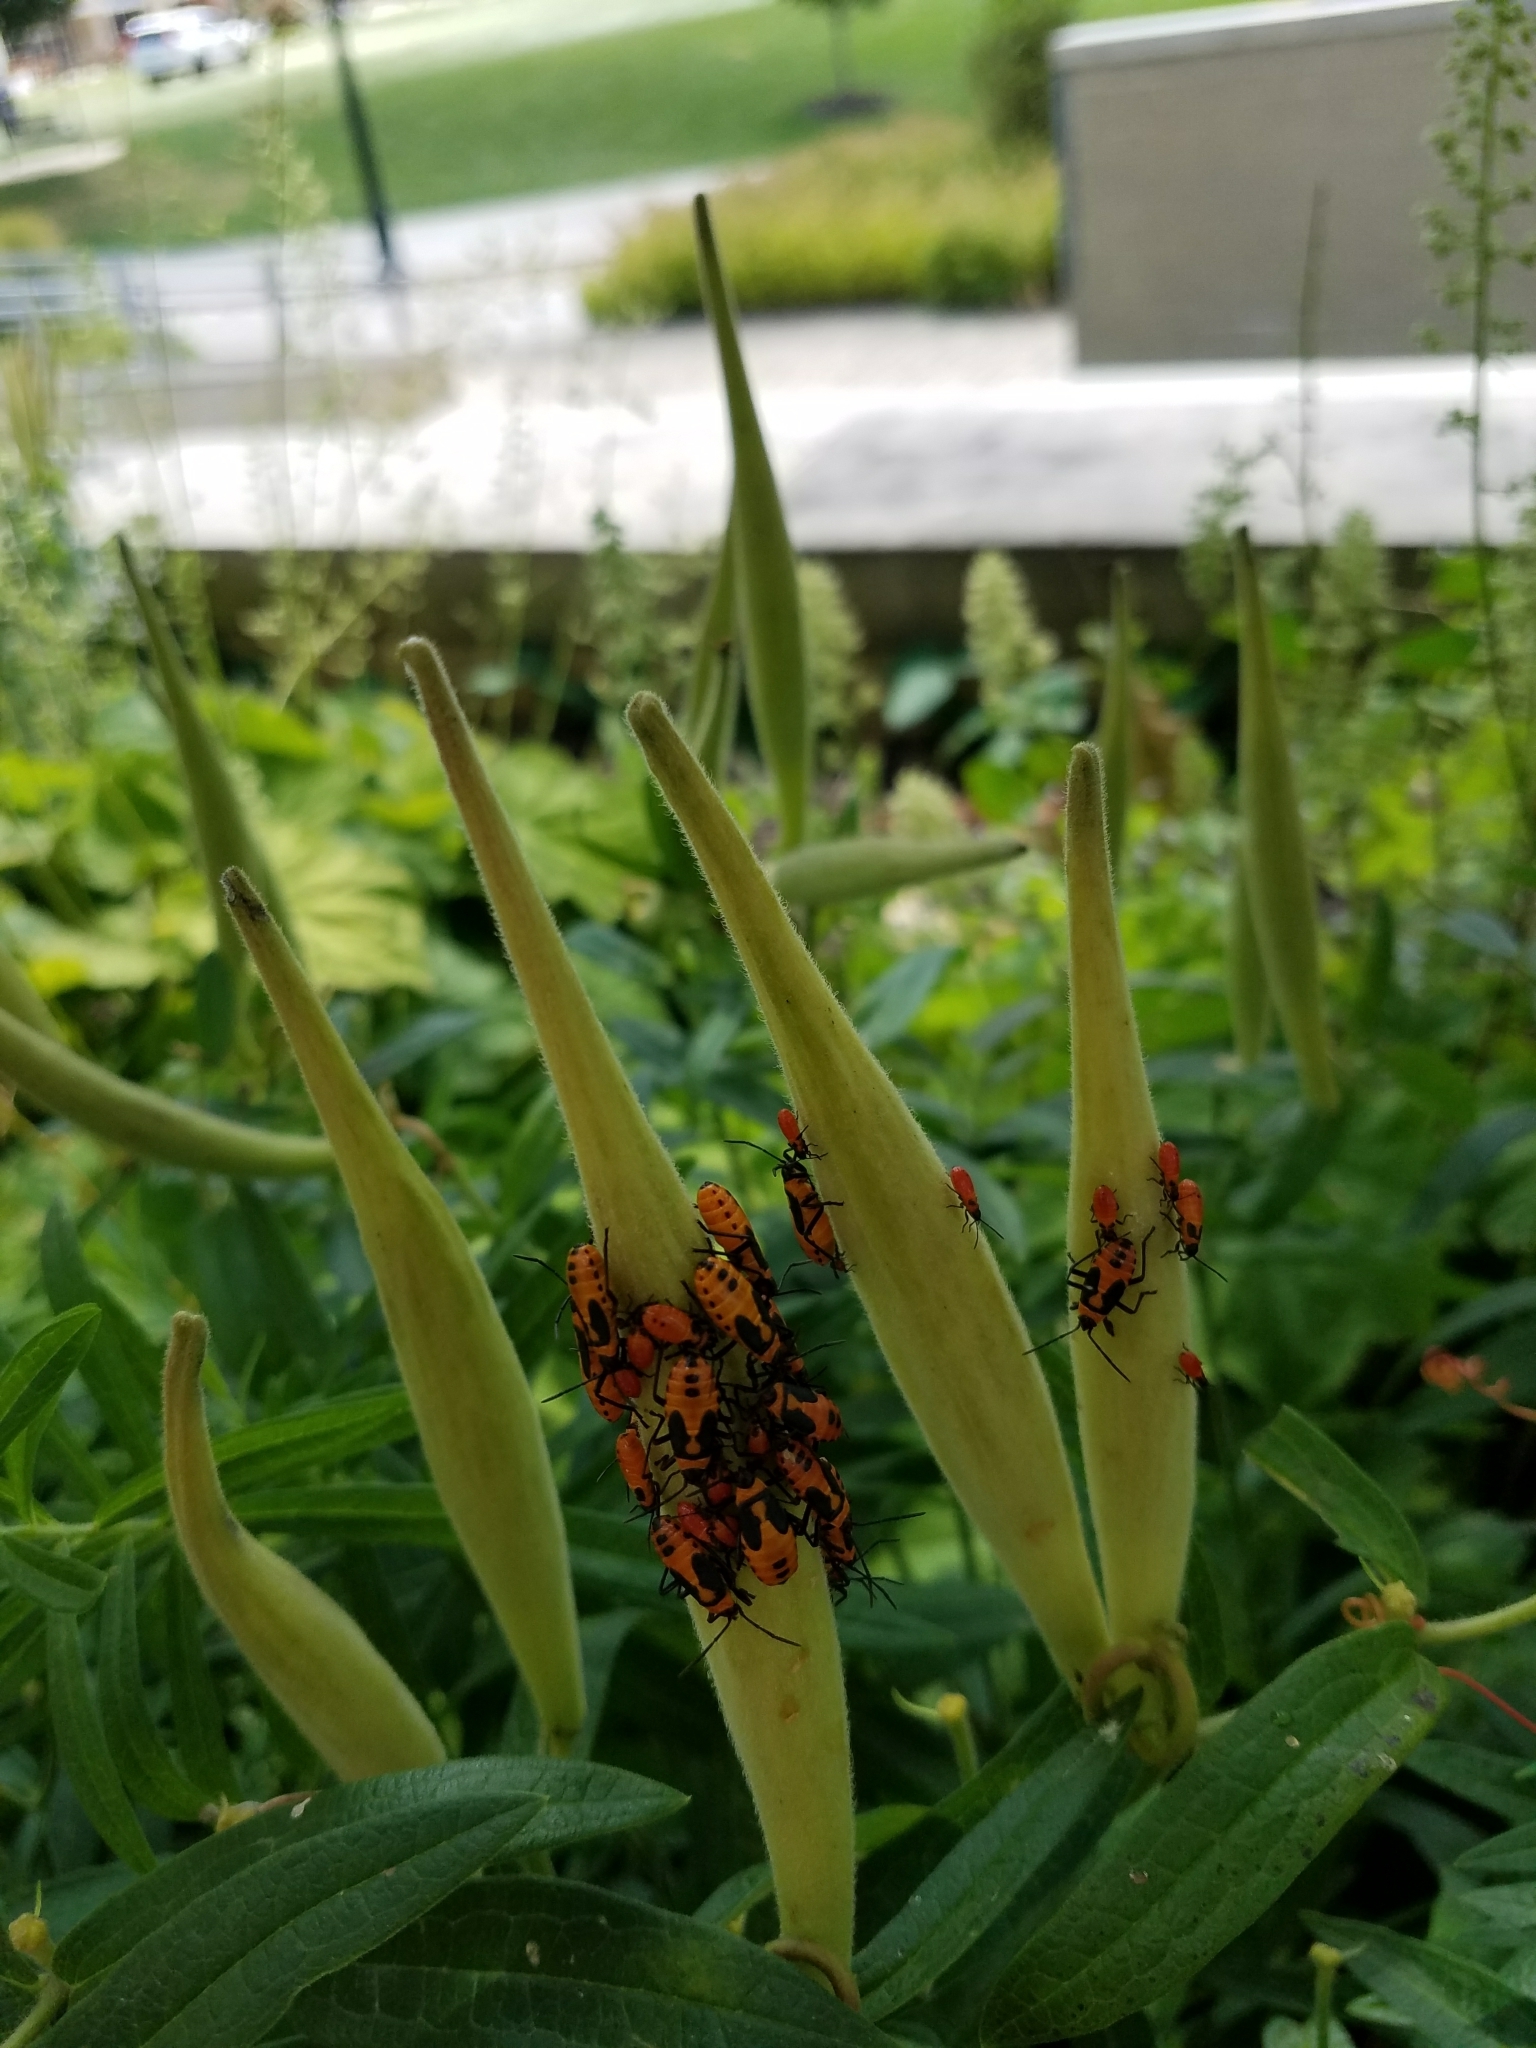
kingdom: Animalia
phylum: Arthropoda
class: Insecta
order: Hemiptera
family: Lygaeidae
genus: Oncopeltus
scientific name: Oncopeltus fasciatus
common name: Large milkweed bug
